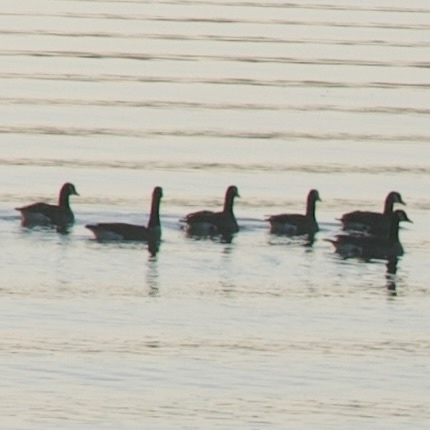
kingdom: Animalia
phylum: Chordata
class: Aves
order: Anseriformes
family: Anatidae
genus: Branta
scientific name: Branta canadensis
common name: Canada goose
